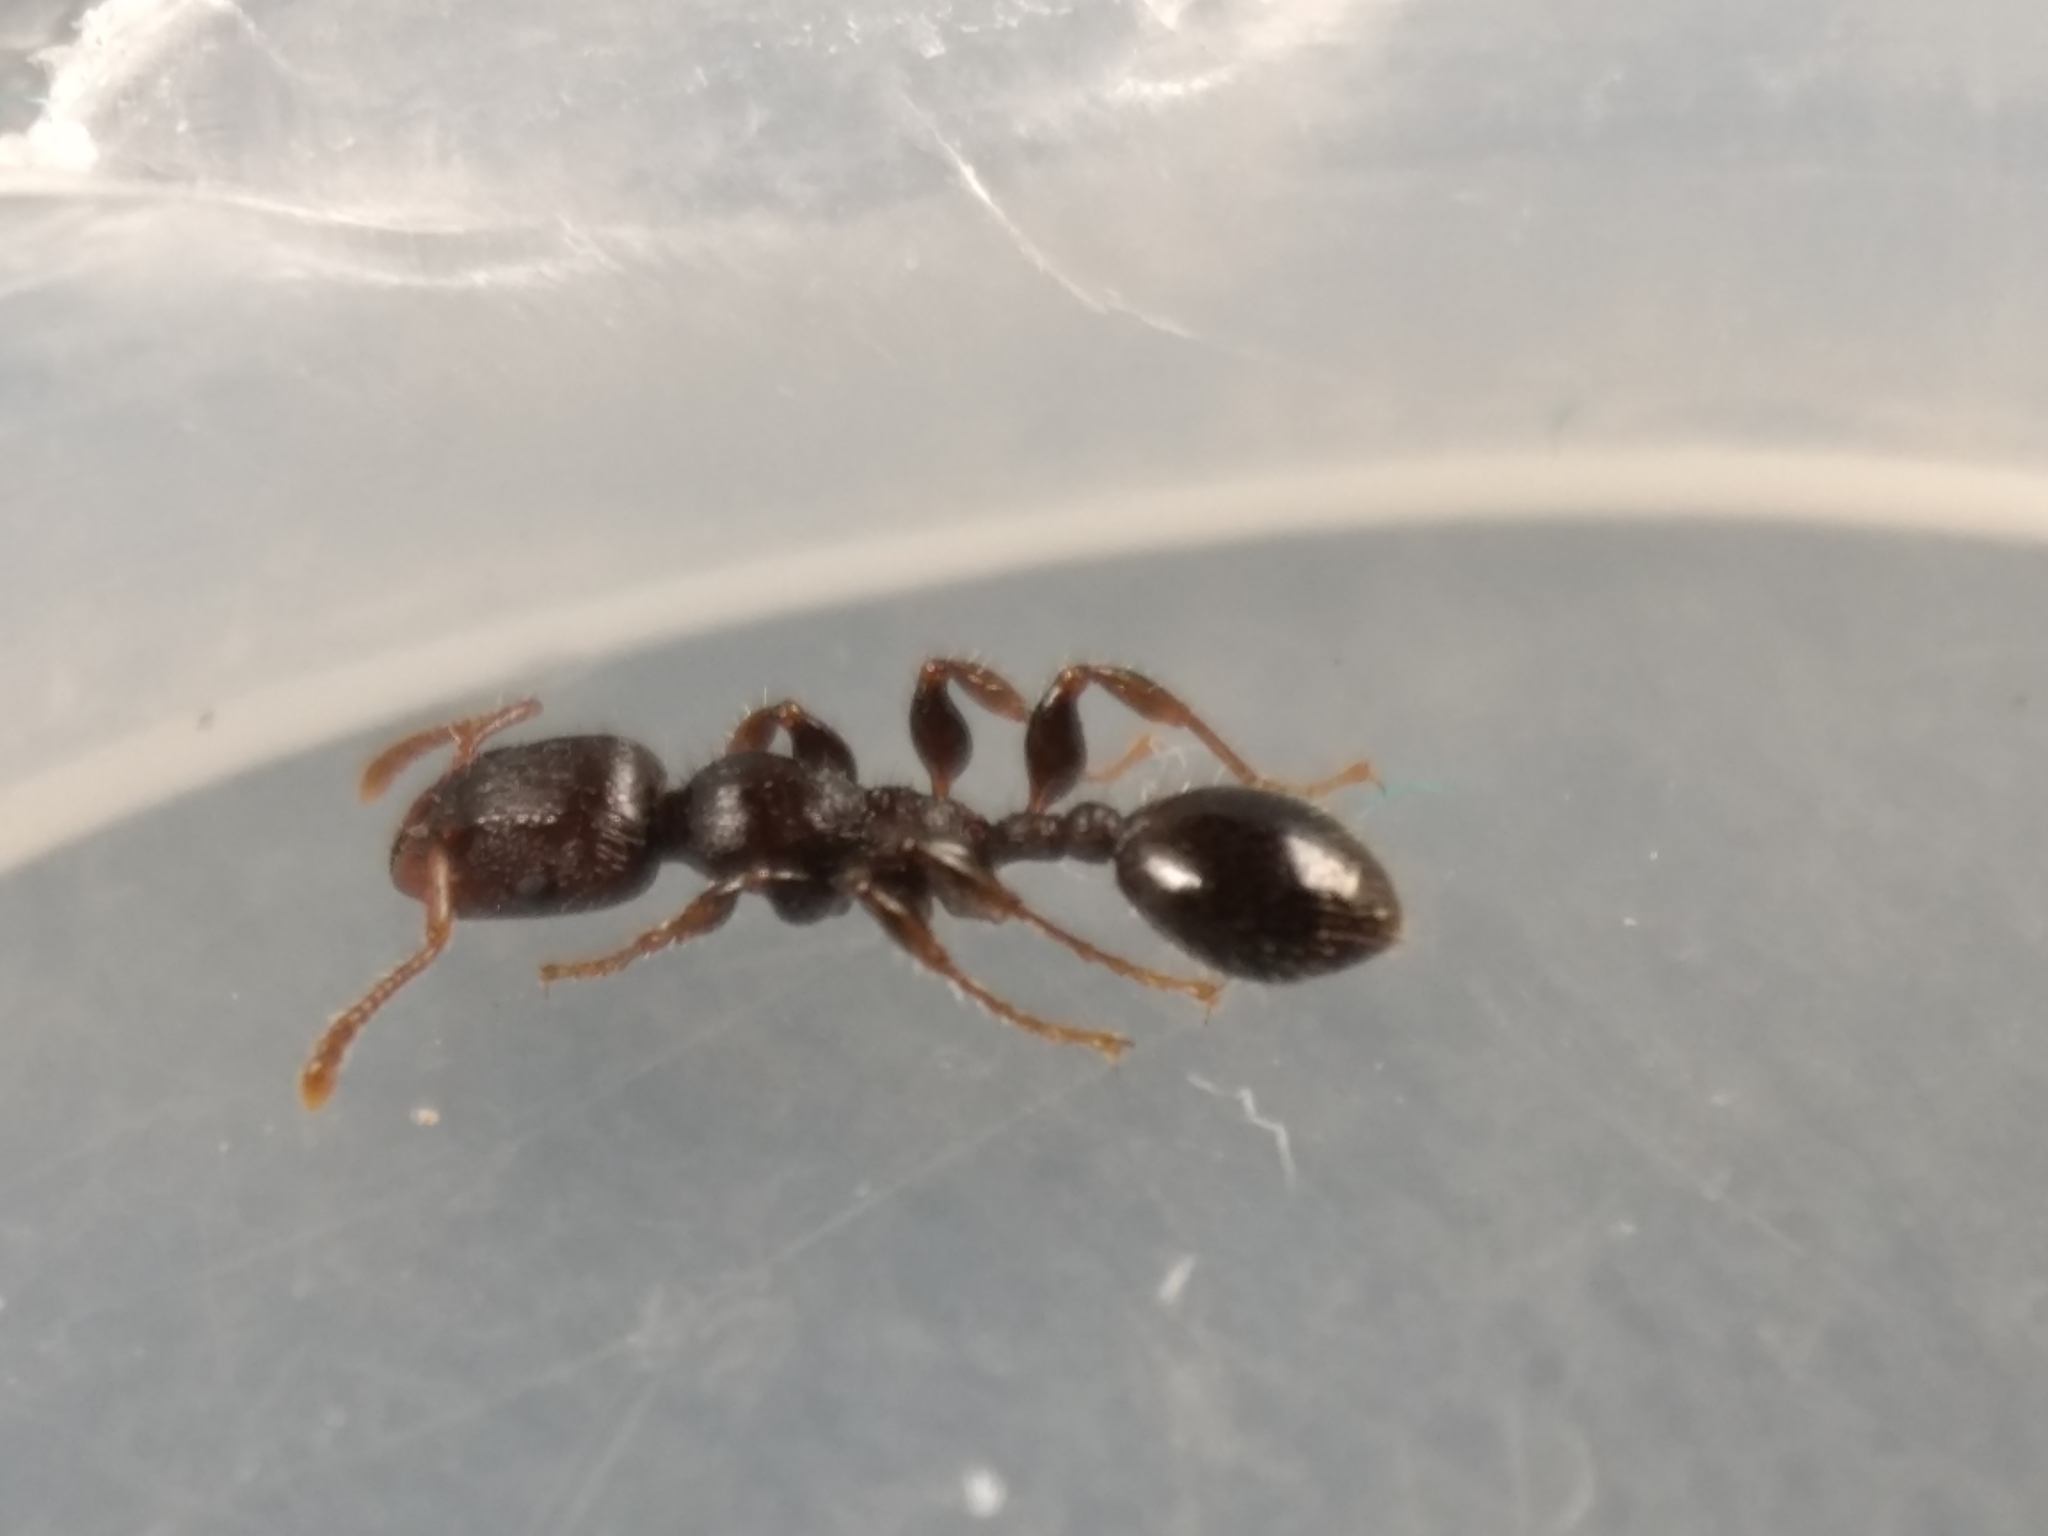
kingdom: Animalia
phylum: Arthropoda
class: Insecta
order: Hymenoptera
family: Formicidae
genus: Podomyrma
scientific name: Podomyrma elongata
